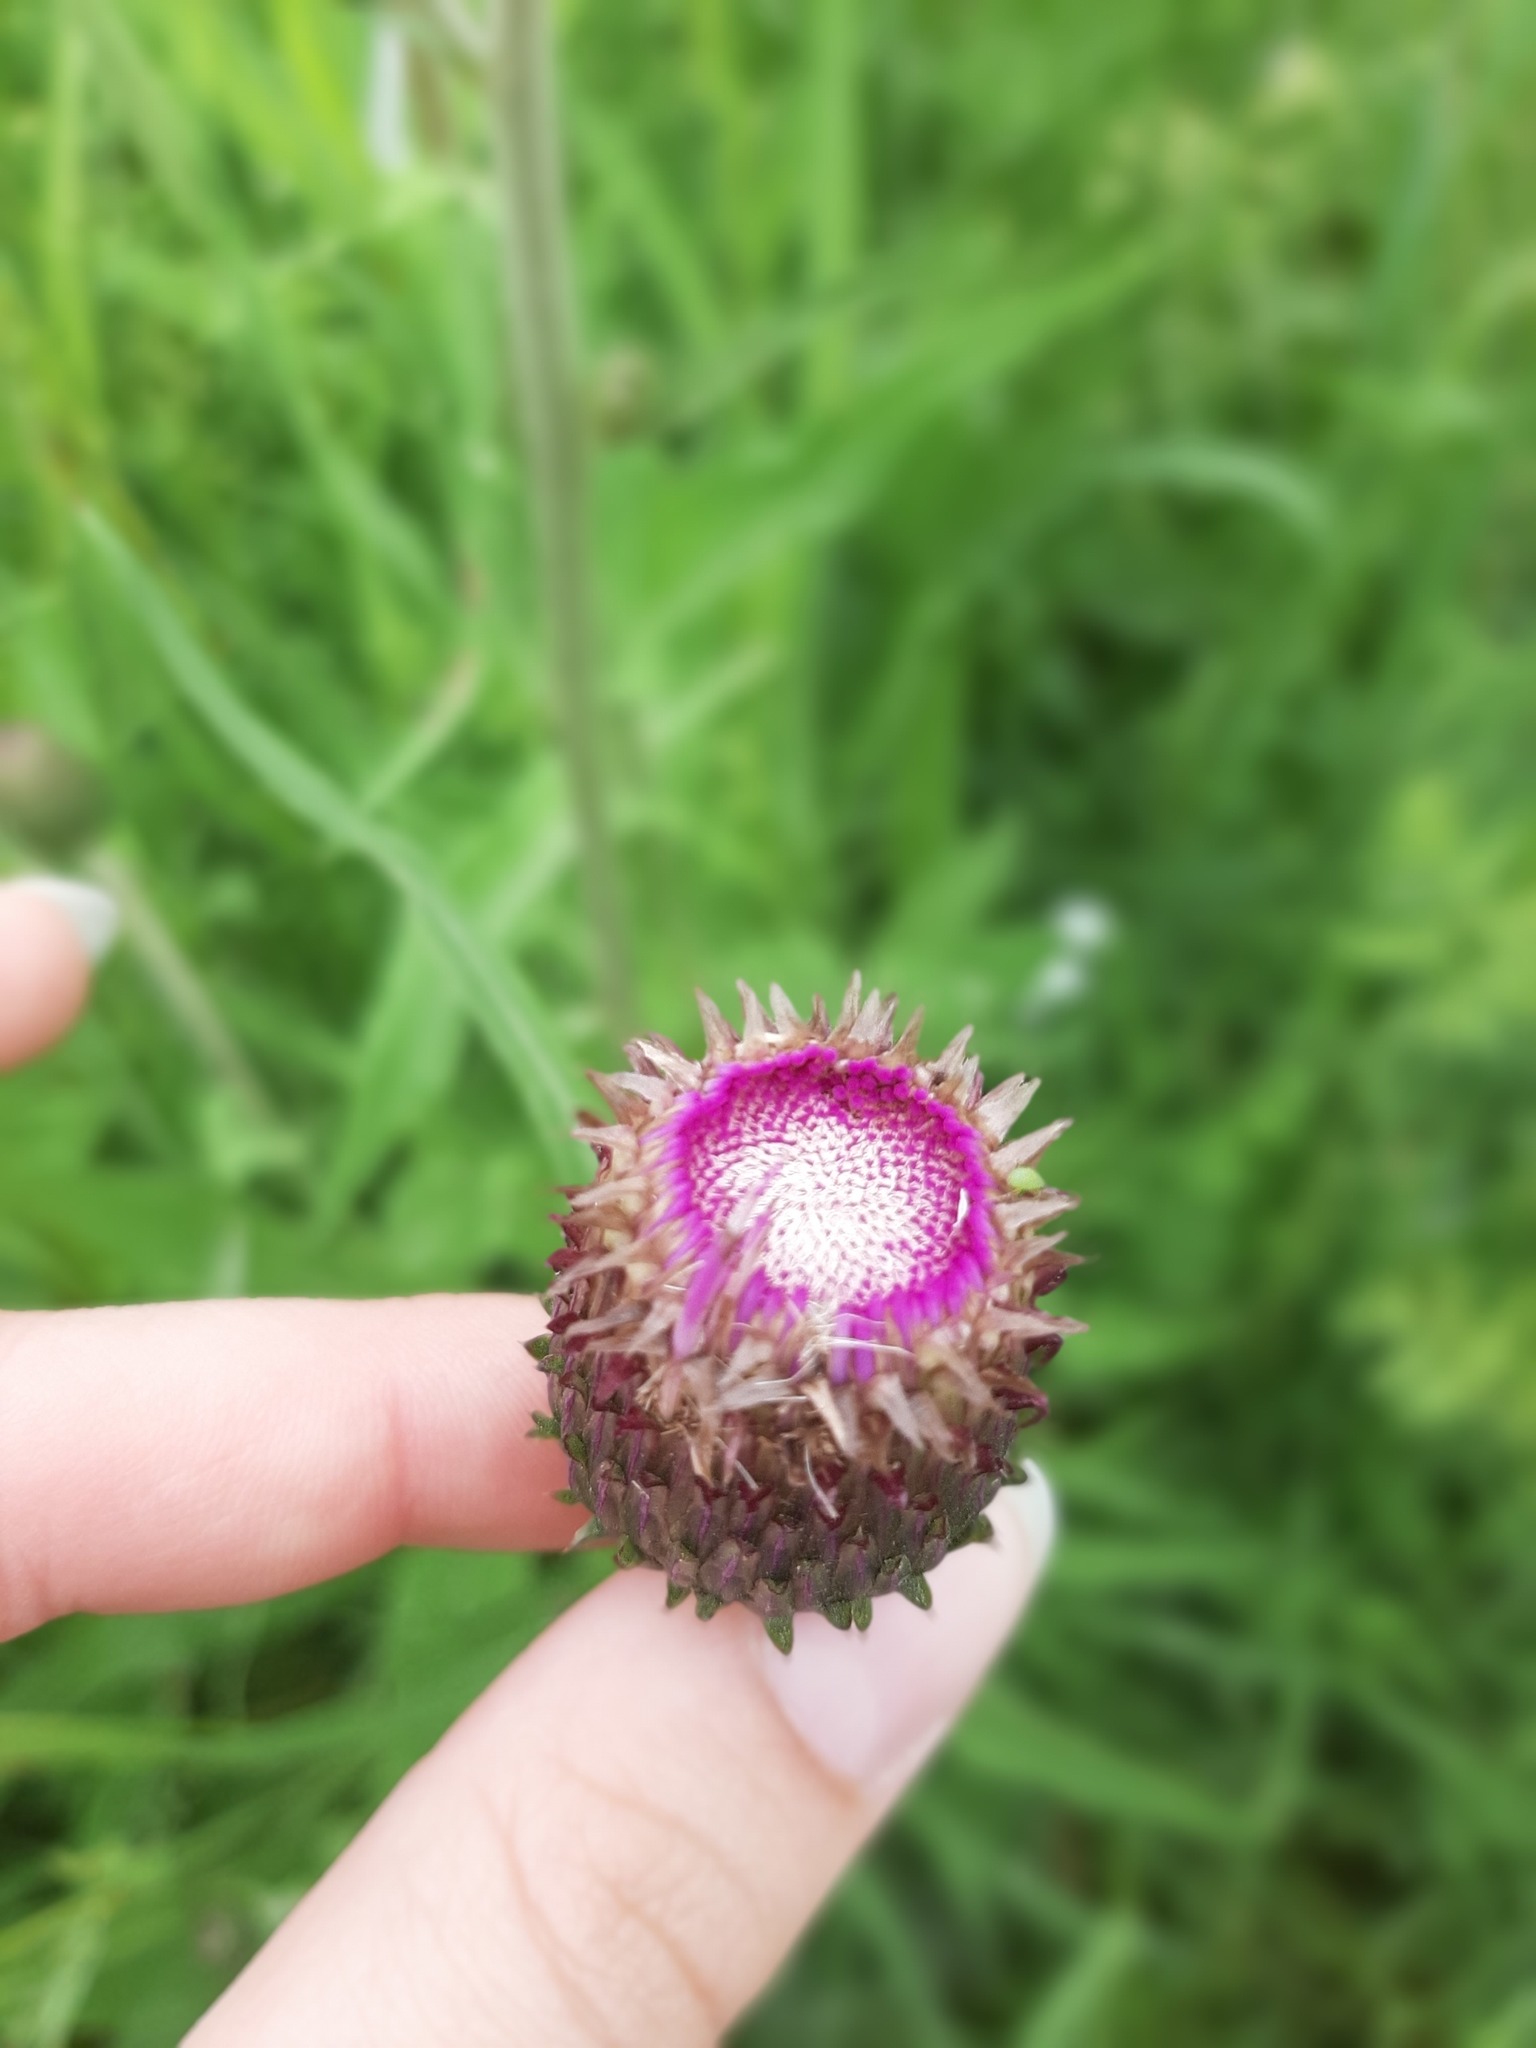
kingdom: Plantae
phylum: Tracheophyta
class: Magnoliopsida
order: Asterales
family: Asteraceae
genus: Cirsium
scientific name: Cirsium heterophyllum
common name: Melancholy thistle
